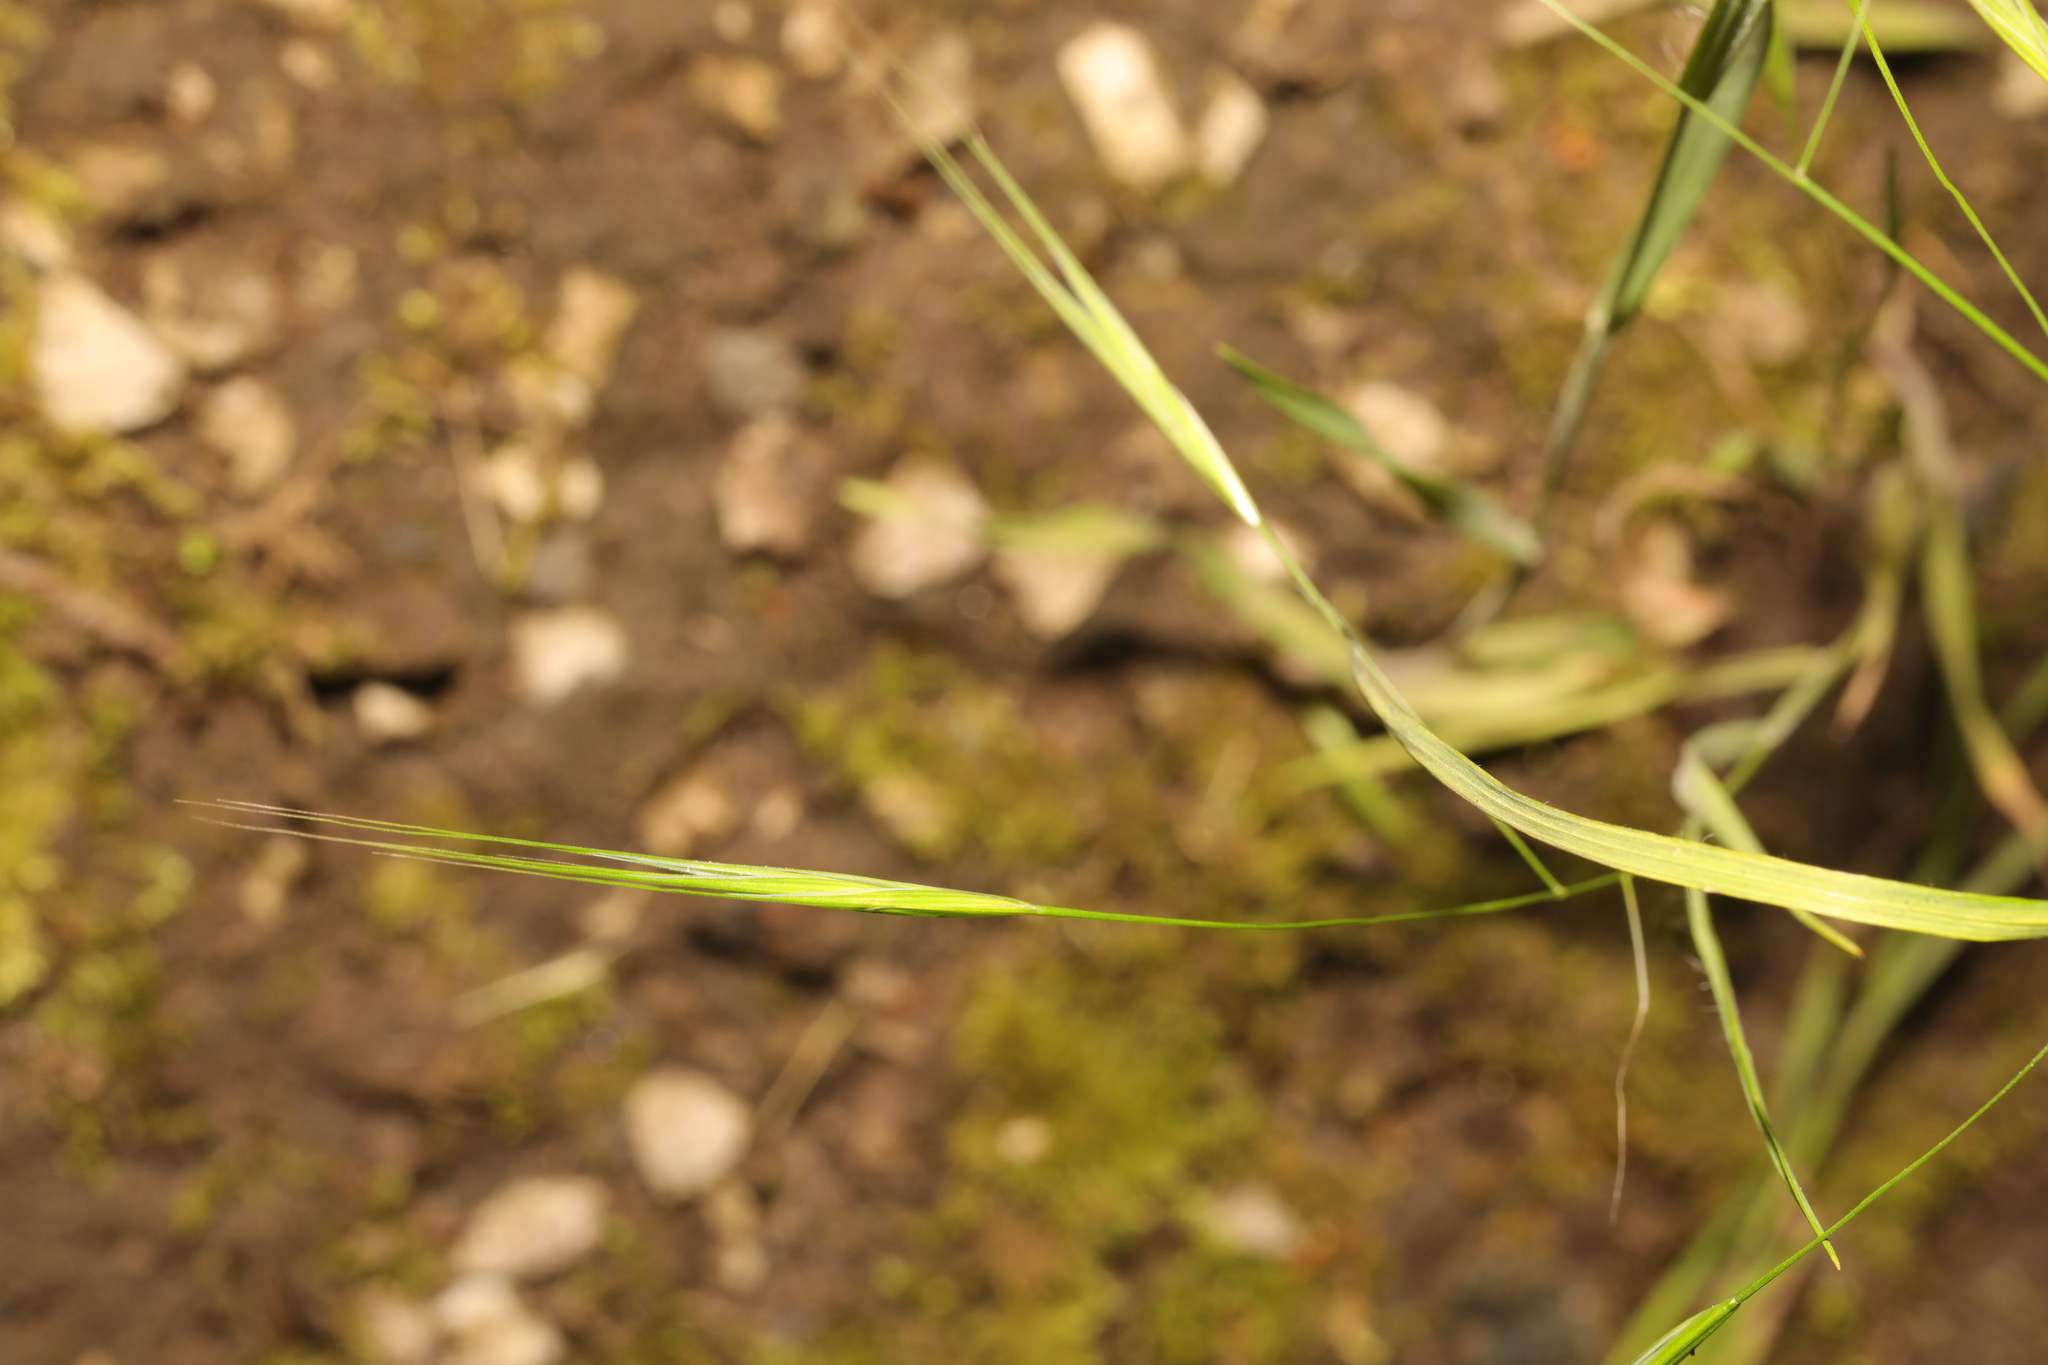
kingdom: Plantae
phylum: Tracheophyta
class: Liliopsida
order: Poales
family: Poaceae
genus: Bromus
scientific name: Bromus sterilis
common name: Poverty brome
